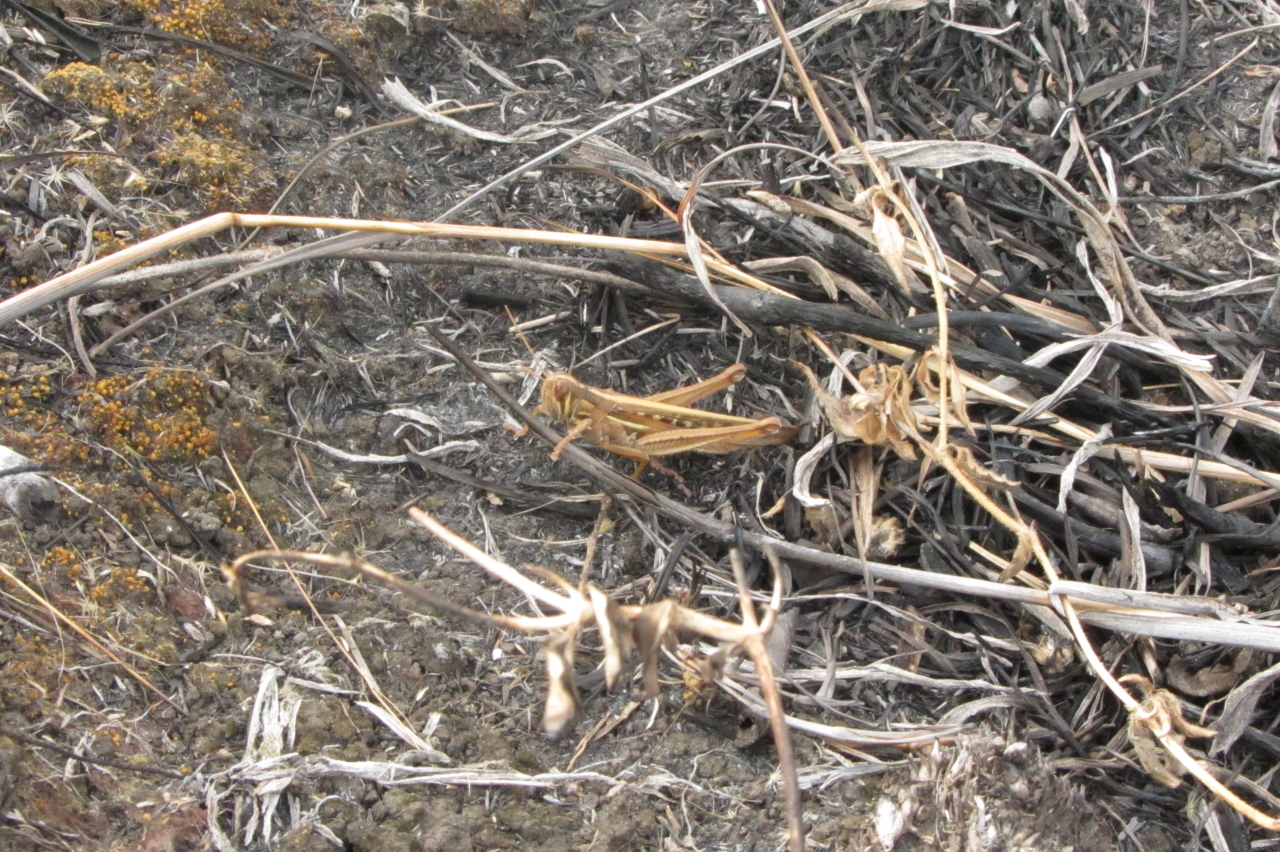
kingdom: Animalia
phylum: Arthropoda
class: Insecta
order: Orthoptera
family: Acrididae
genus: Austracris
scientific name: Austracris guttulosa
